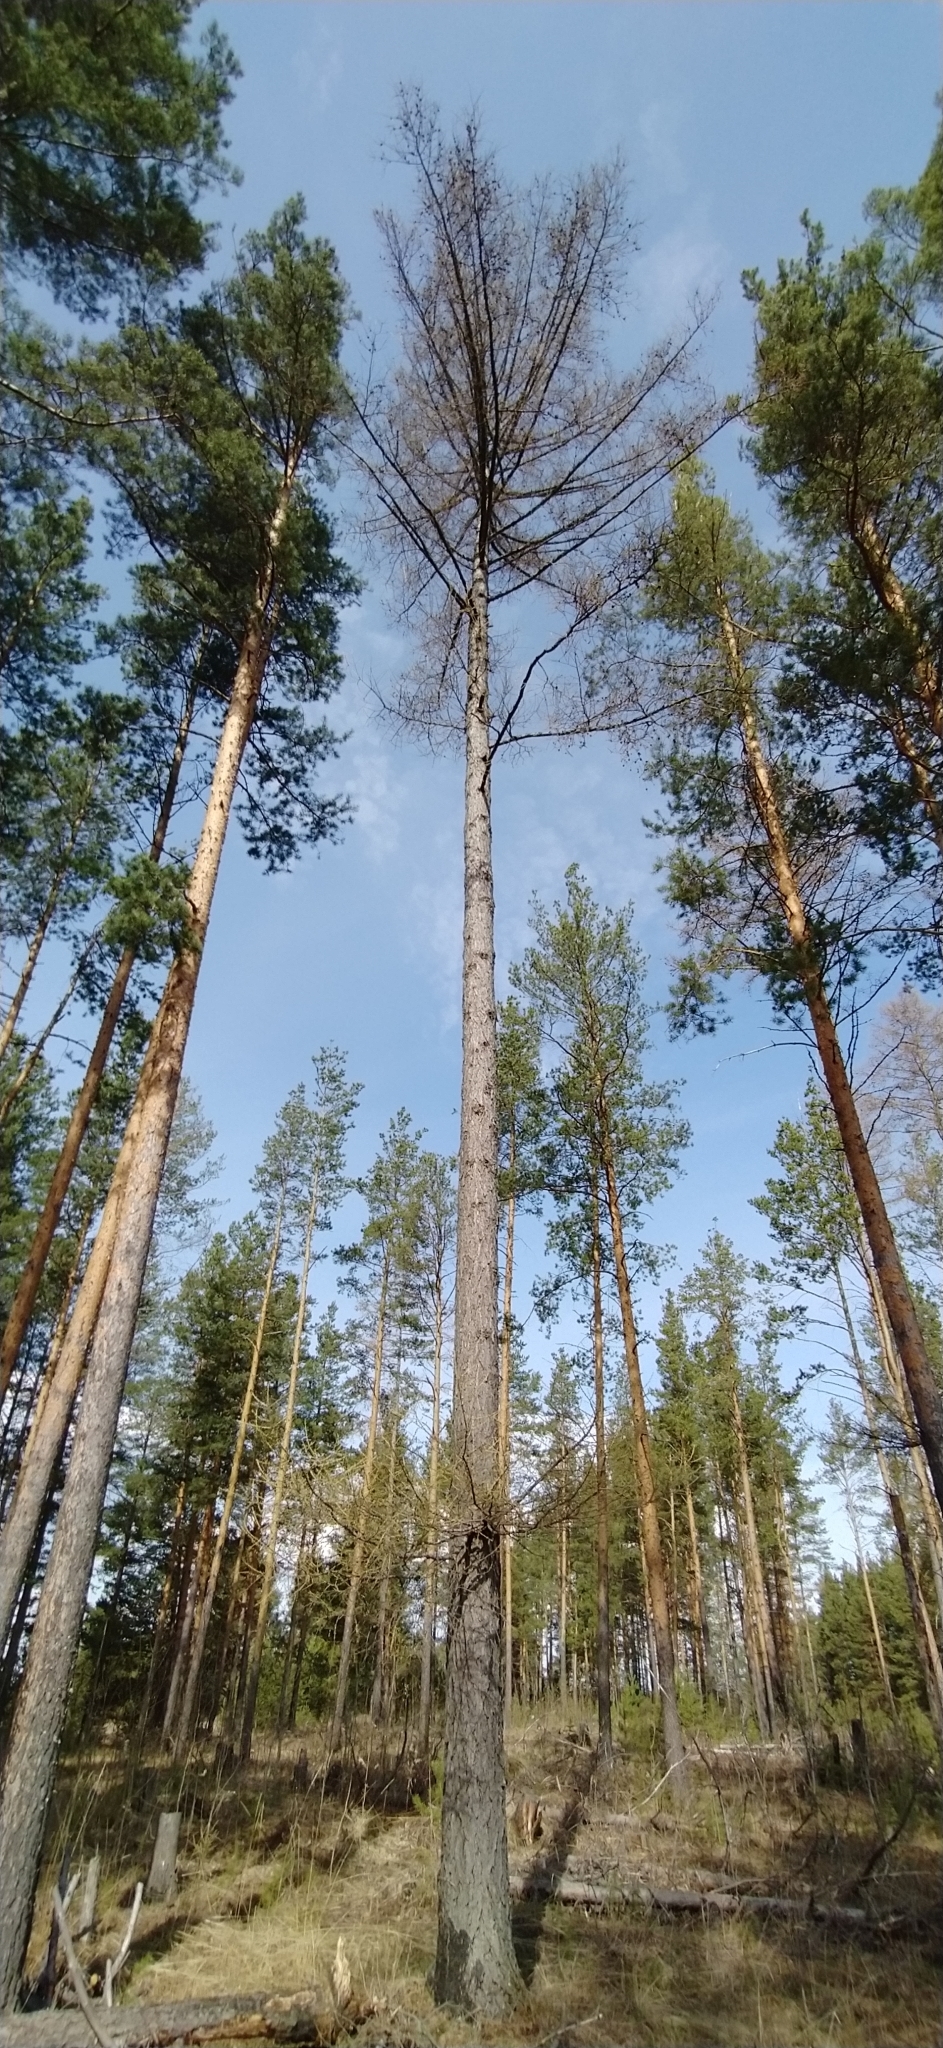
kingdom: Plantae
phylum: Tracheophyta
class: Pinopsida
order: Pinales
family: Pinaceae
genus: Larix
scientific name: Larix sibirica
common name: Siberian larch
